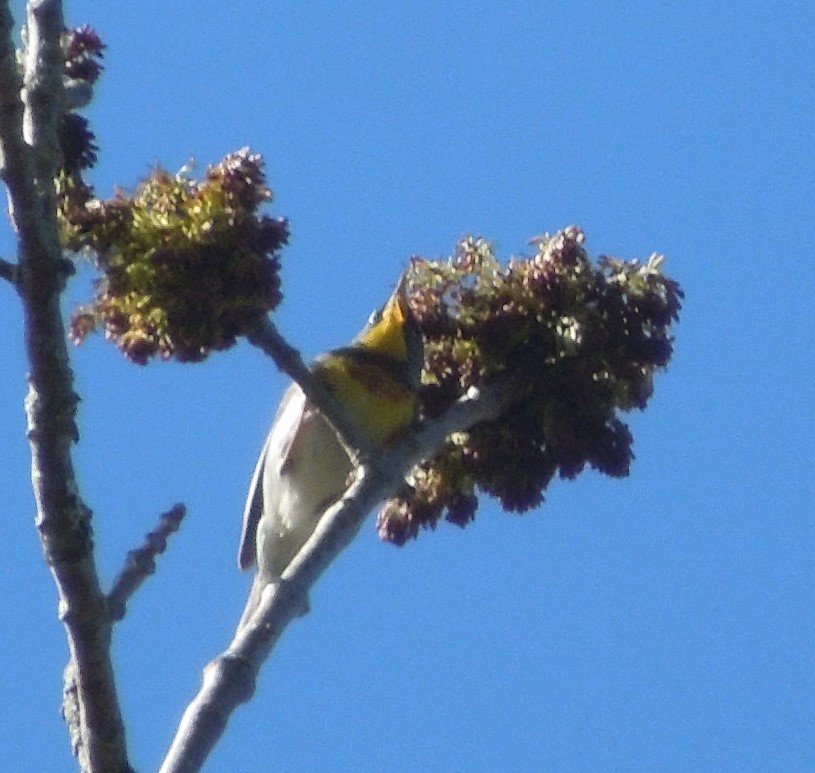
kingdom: Animalia
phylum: Chordata
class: Aves
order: Passeriformes
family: Parulidae
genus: Setophaga
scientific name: Setophaga americana
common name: Northern parula
